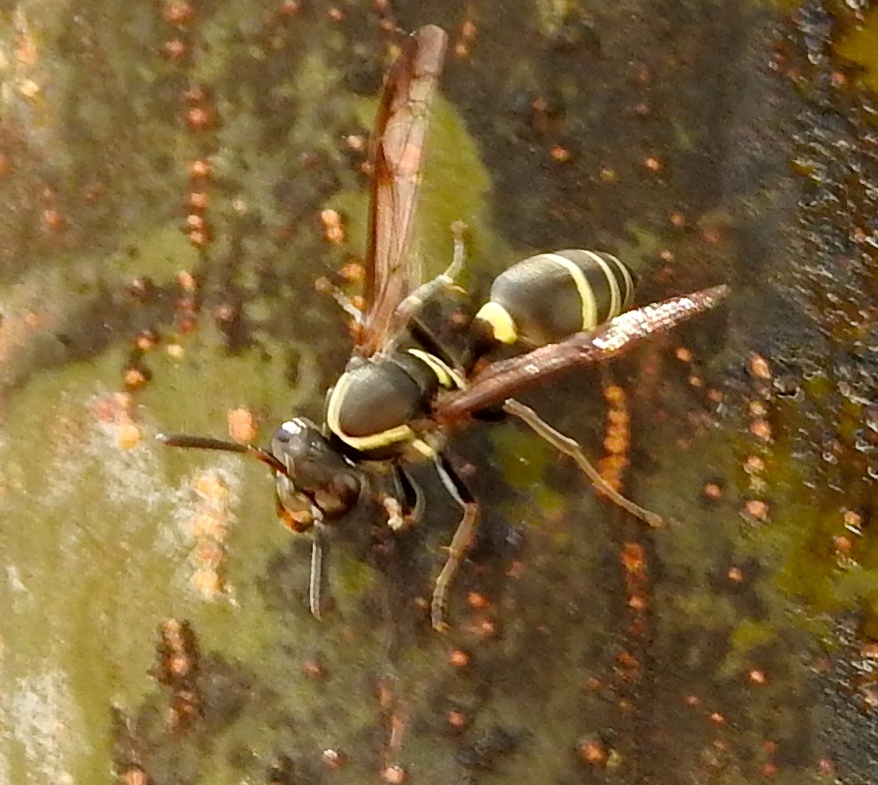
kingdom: Animalia
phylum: Arthropoda
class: Insecta
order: Hymenoptera
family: Vespidae
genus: Myrapetra
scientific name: Myrapetra
